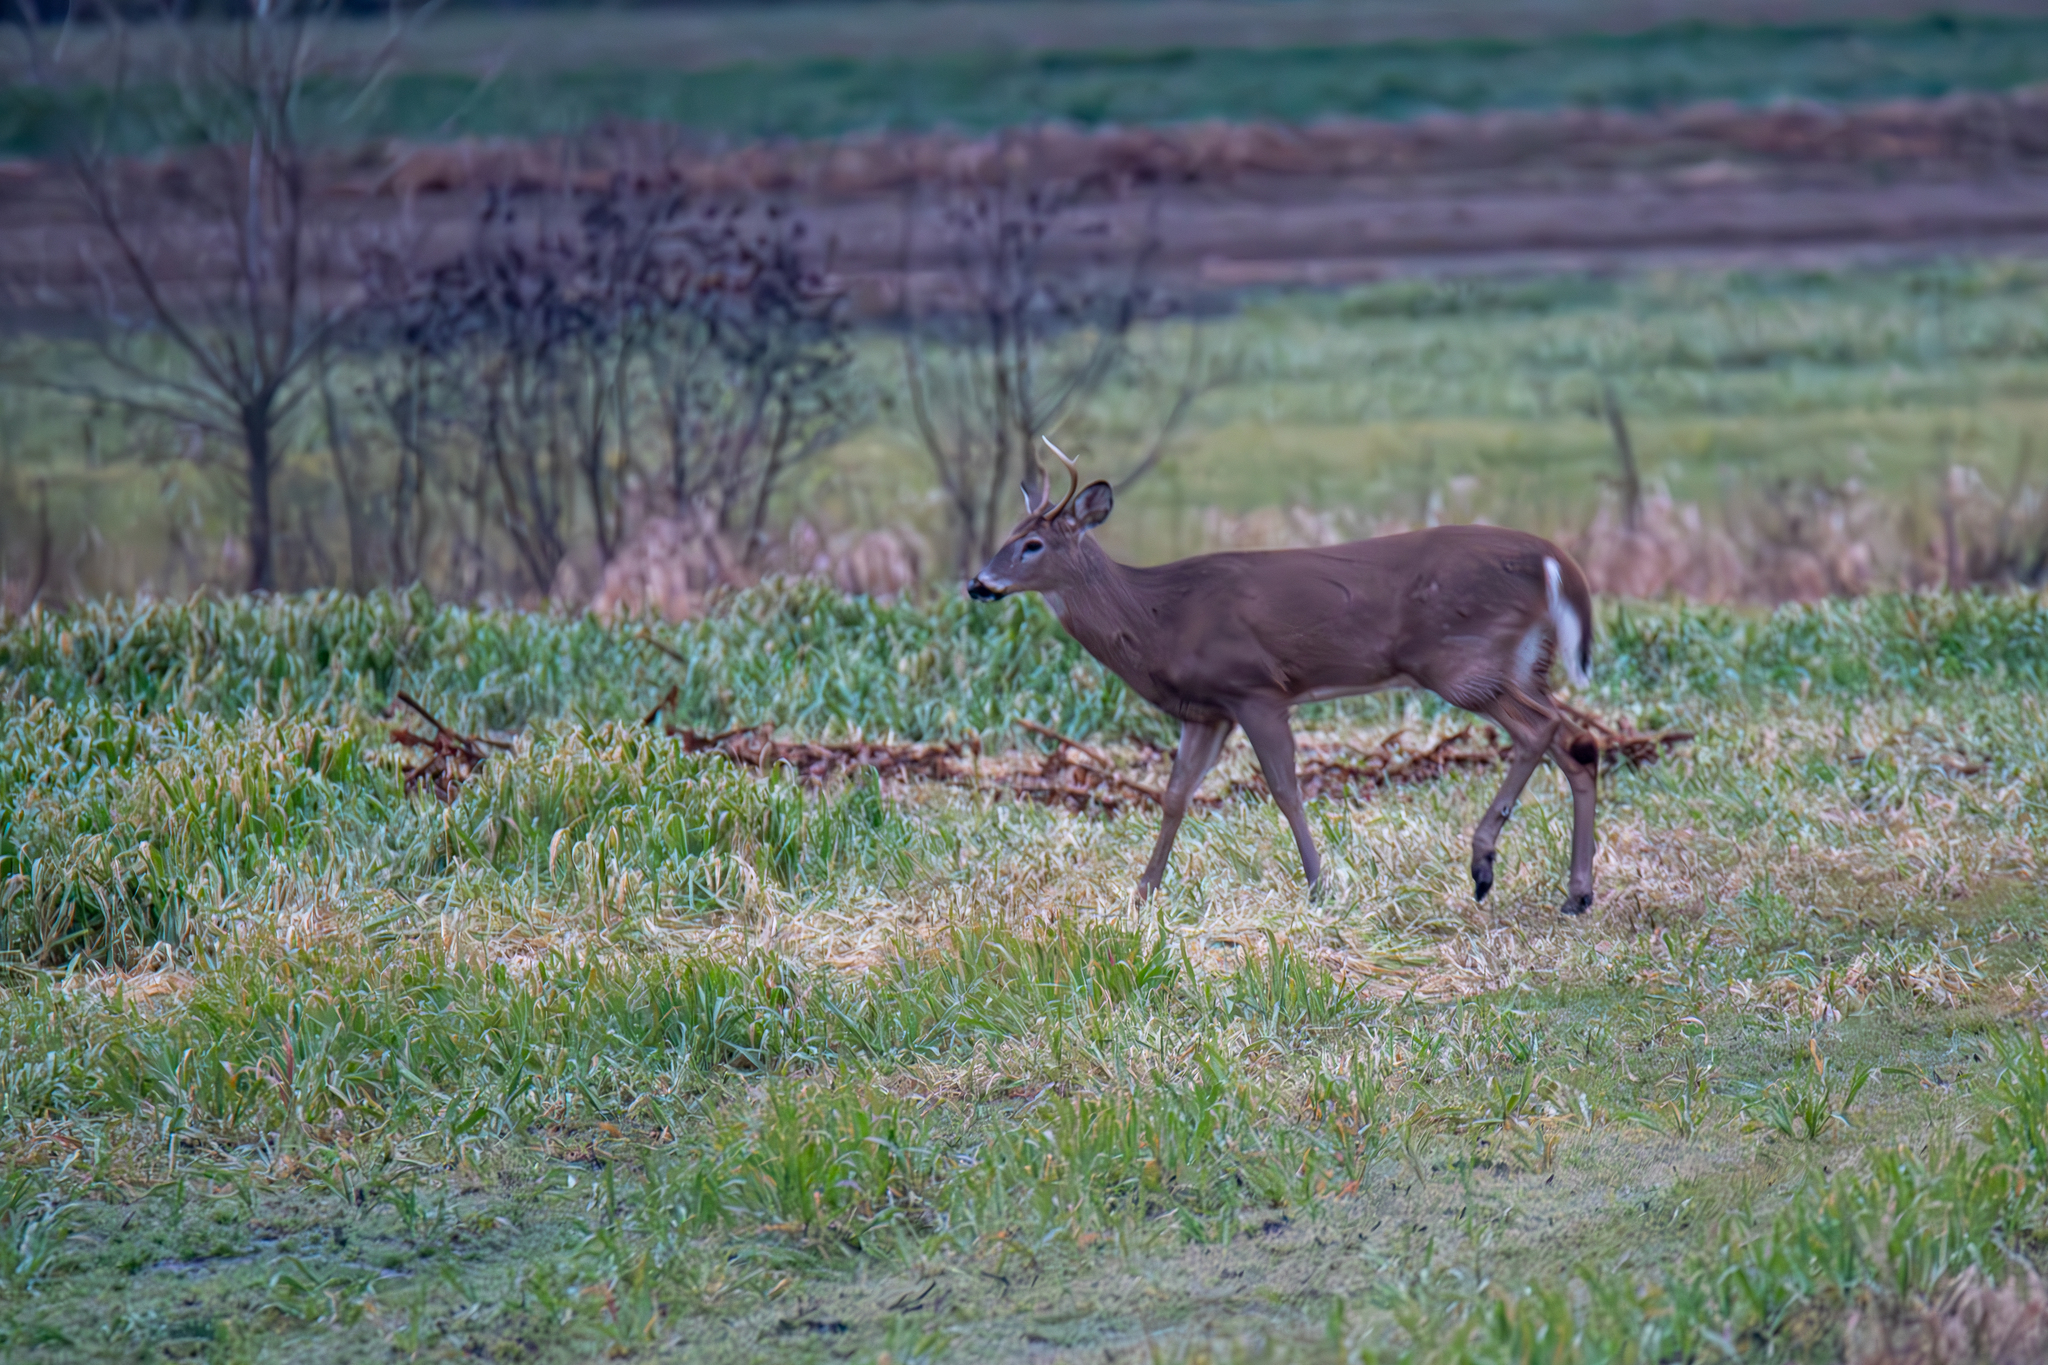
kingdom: Animalia
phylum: Chordata
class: Mammalia
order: Artiodactyla
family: Cervidae
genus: Odocoileus
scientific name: Odocoileus virginianus
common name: White-tailed deer
